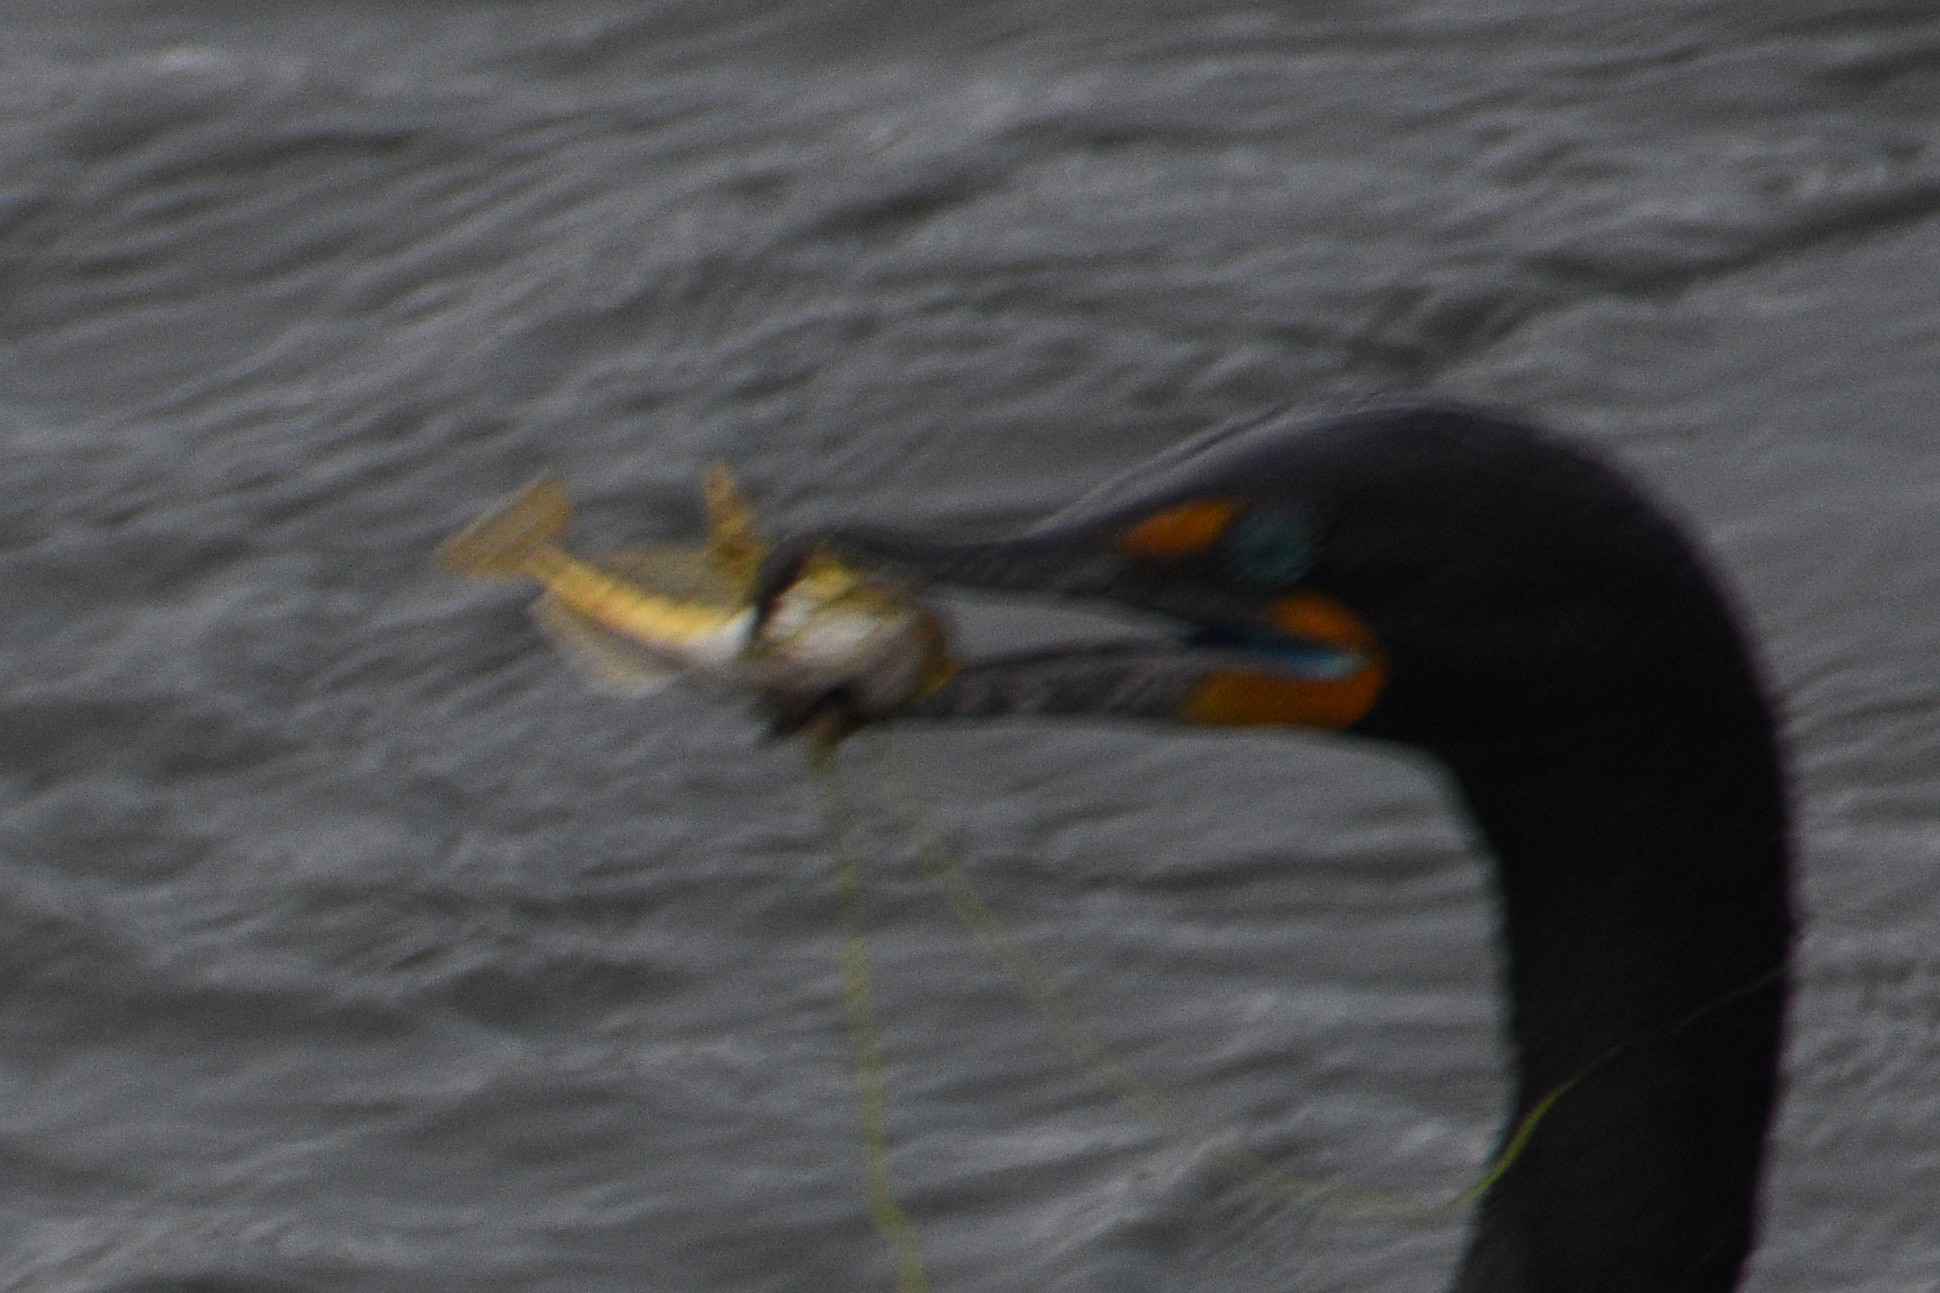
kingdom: Animalia
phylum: Chordata
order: Scorpaeniformes
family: Cottidae
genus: Leptocottus
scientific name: Leptocottus armatus
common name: Pacific staghorn sculpin
